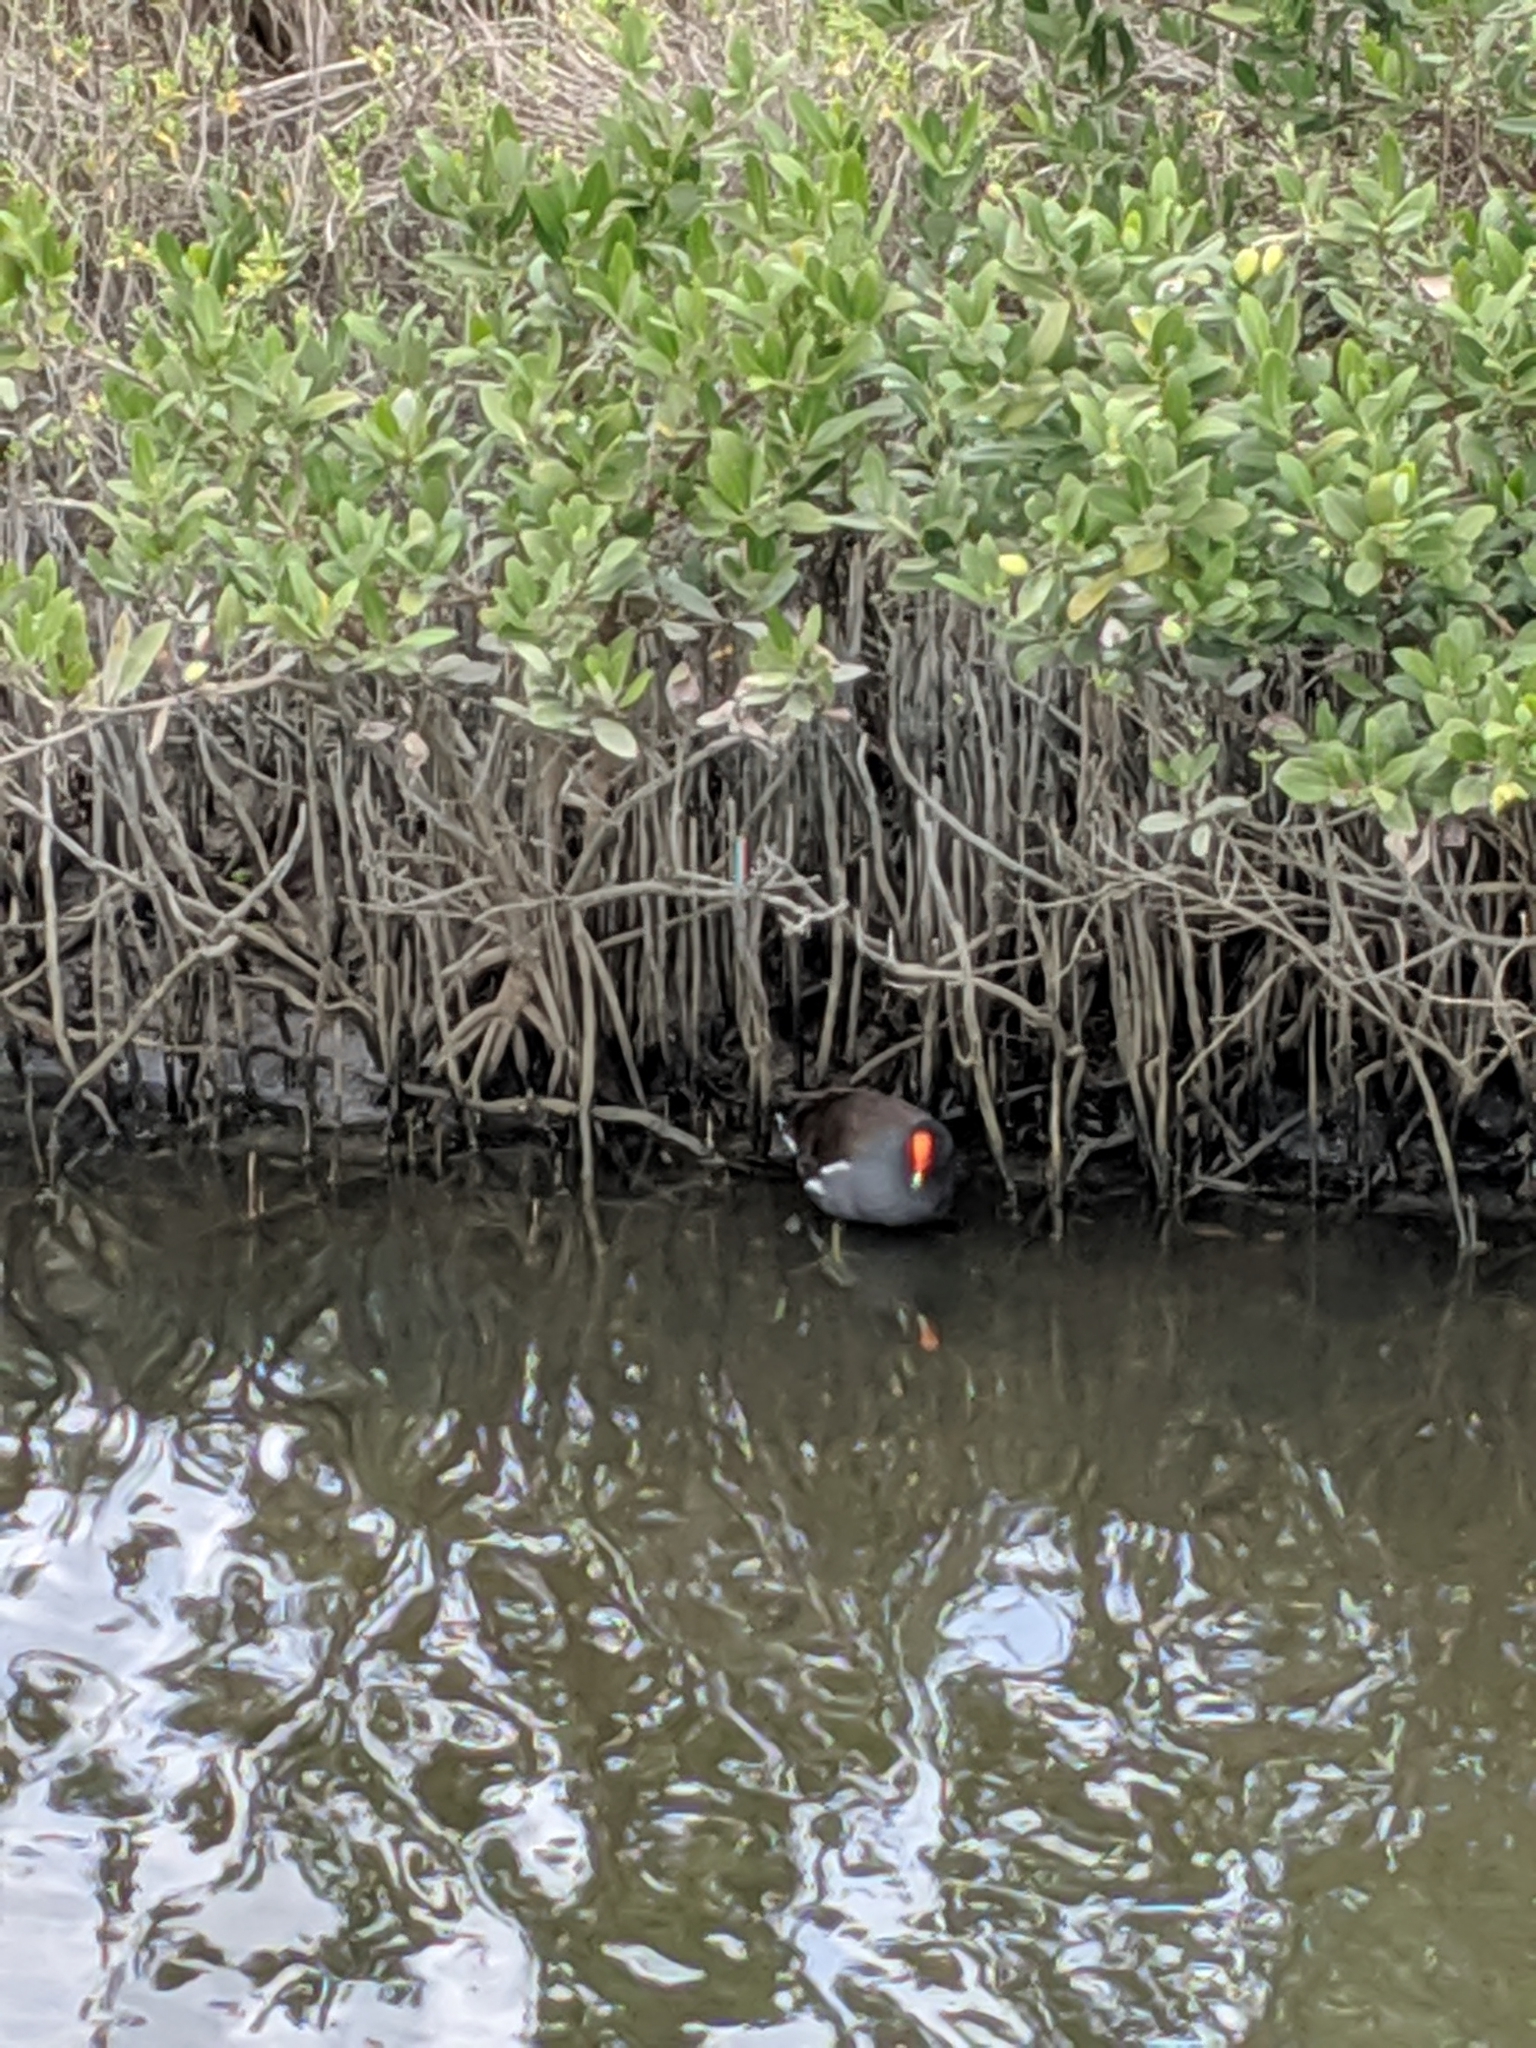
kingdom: Animalia
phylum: Chordata
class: Aves
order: Gruiformes
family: Rallidae
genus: Gallinula
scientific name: Gallinula chloropus
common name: Common moorhen
